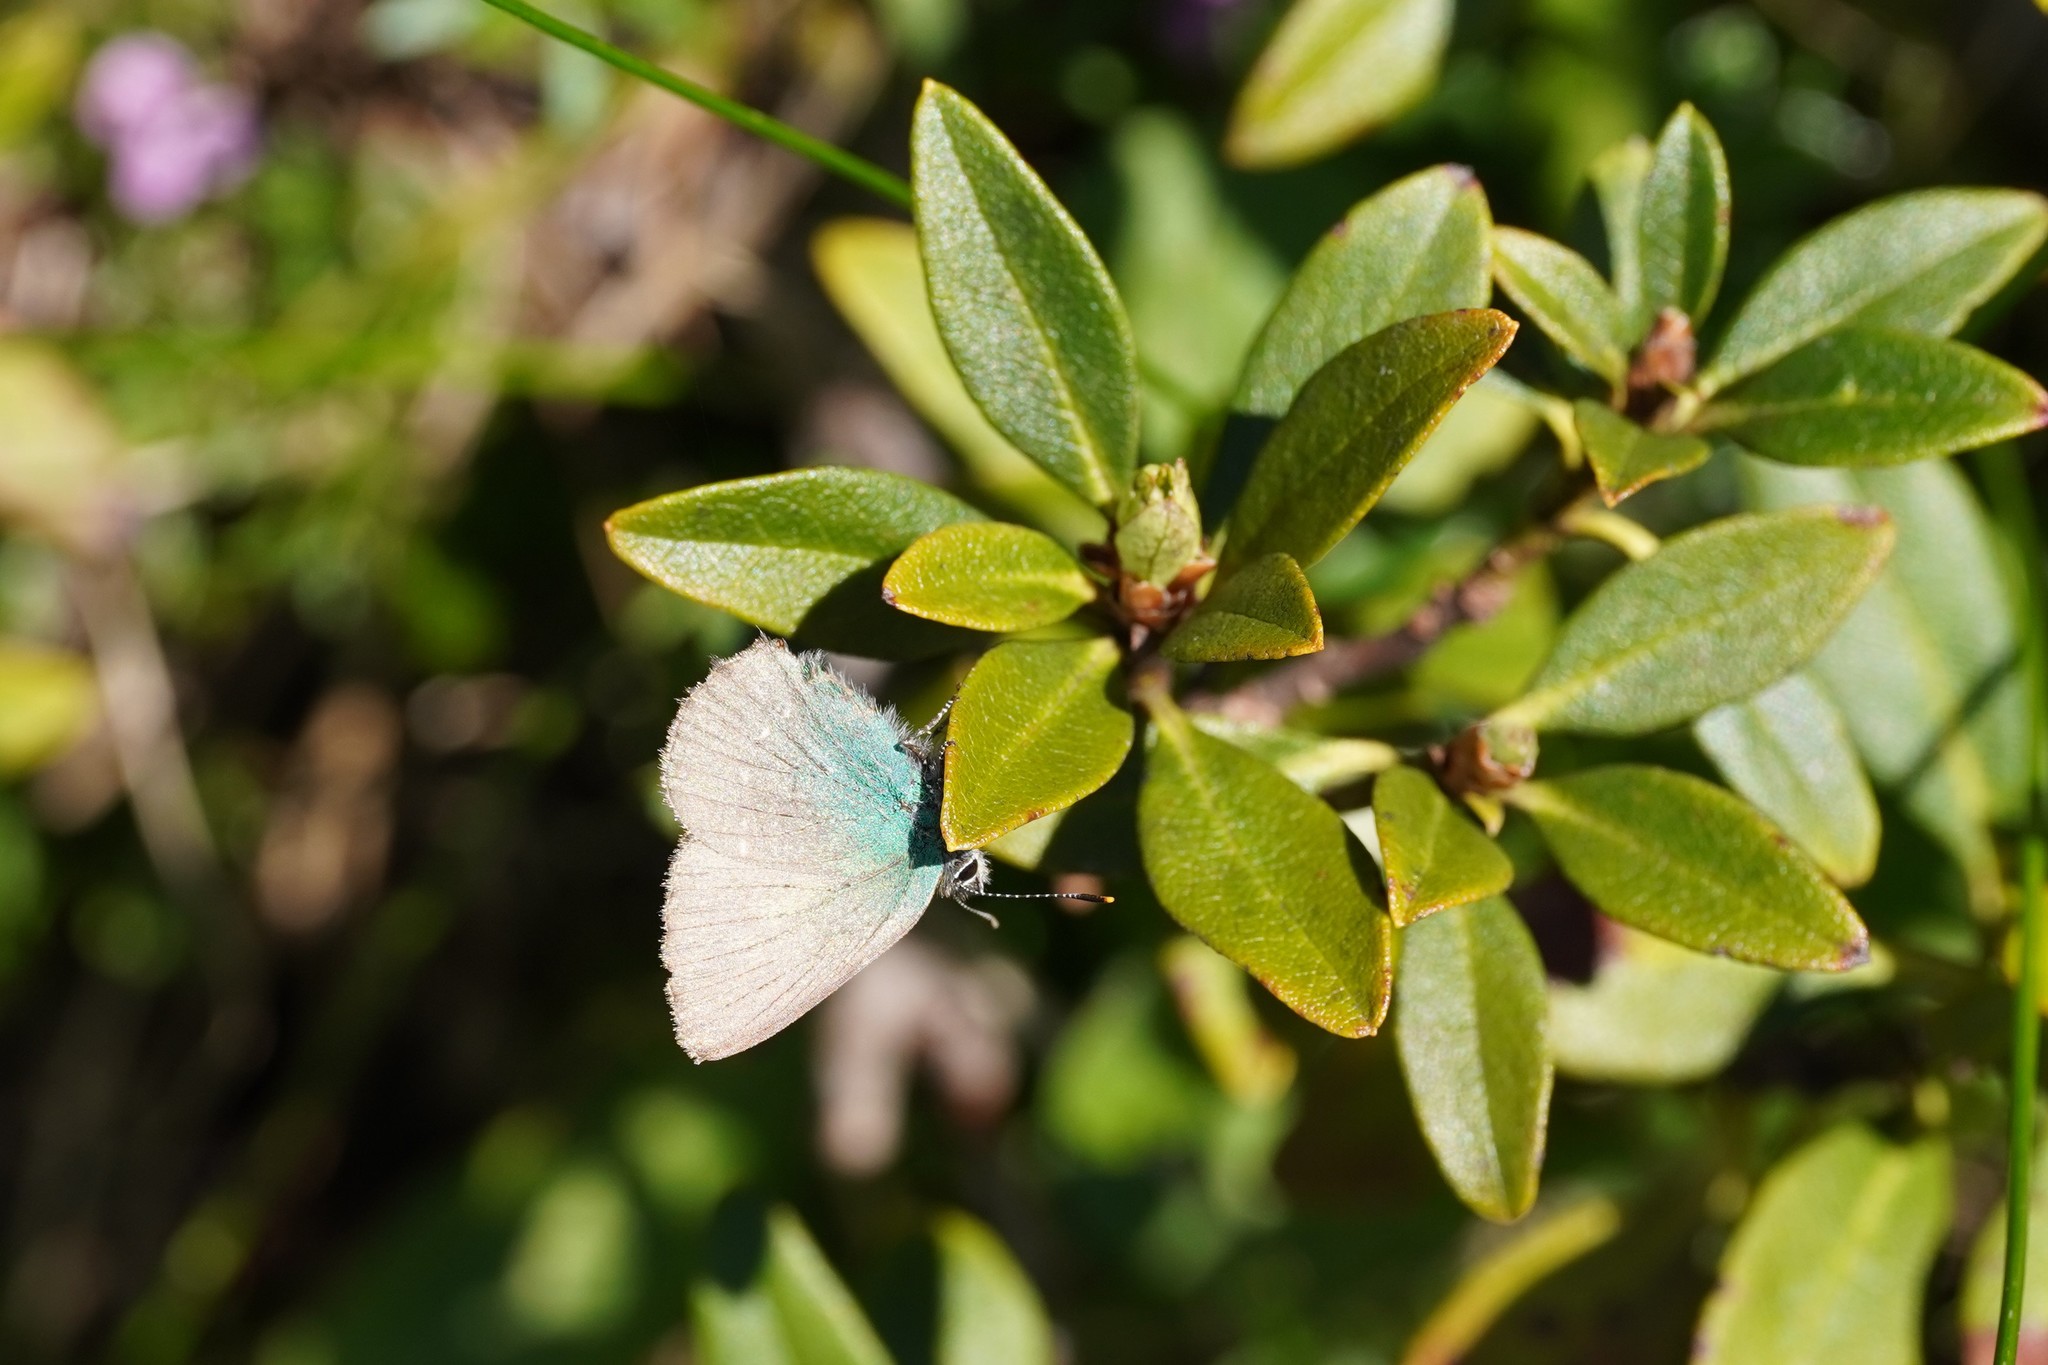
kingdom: Animalia
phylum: Arthropoda
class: Insecta
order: Lepidoptera
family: Lycaenidae
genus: Callophrys
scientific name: Callophrys rubi
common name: Green hairstreak
